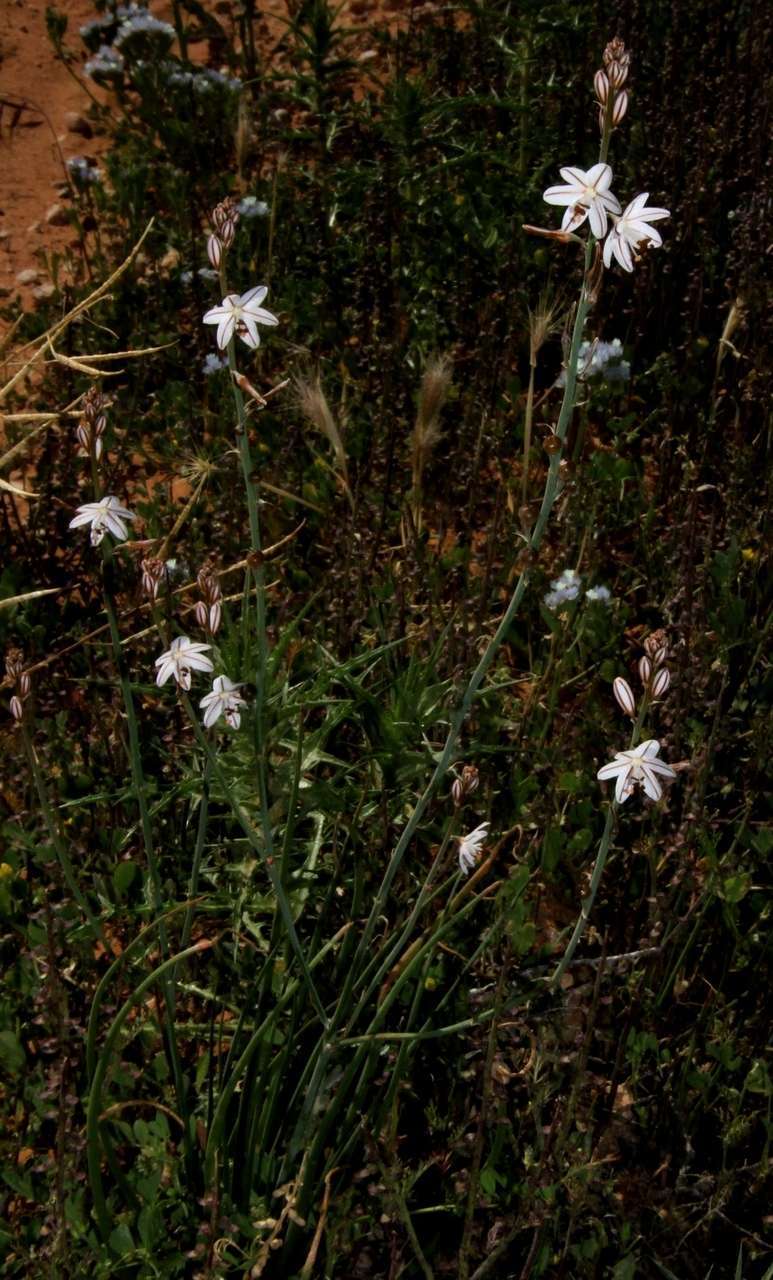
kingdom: Plantae
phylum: Tracheophyta
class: Liliopsida
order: Asparagales
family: Asphodelaceae
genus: Asphodelus
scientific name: Asphodelus fistulosus
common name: Onionweed
